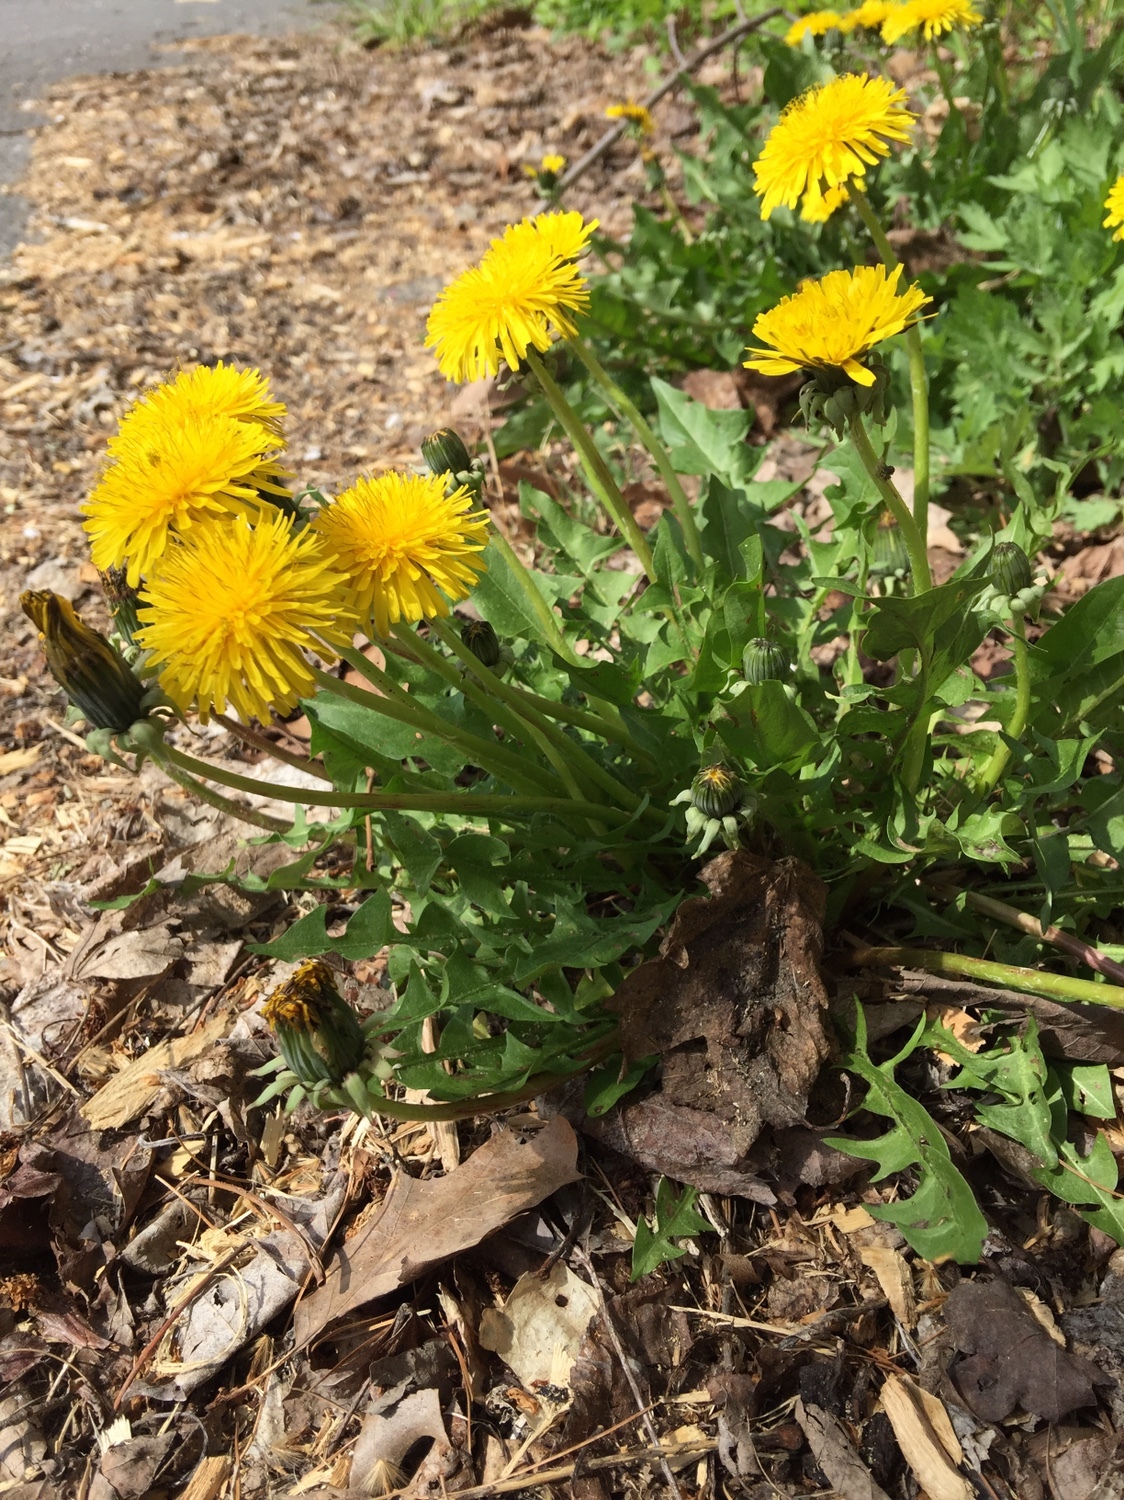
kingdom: Plantae
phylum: Tracheophyta
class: Magnoliopsida
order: Asterales
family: Asteraceae
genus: Taraxacum
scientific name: Taraxacum officinale
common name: Common dandelion
